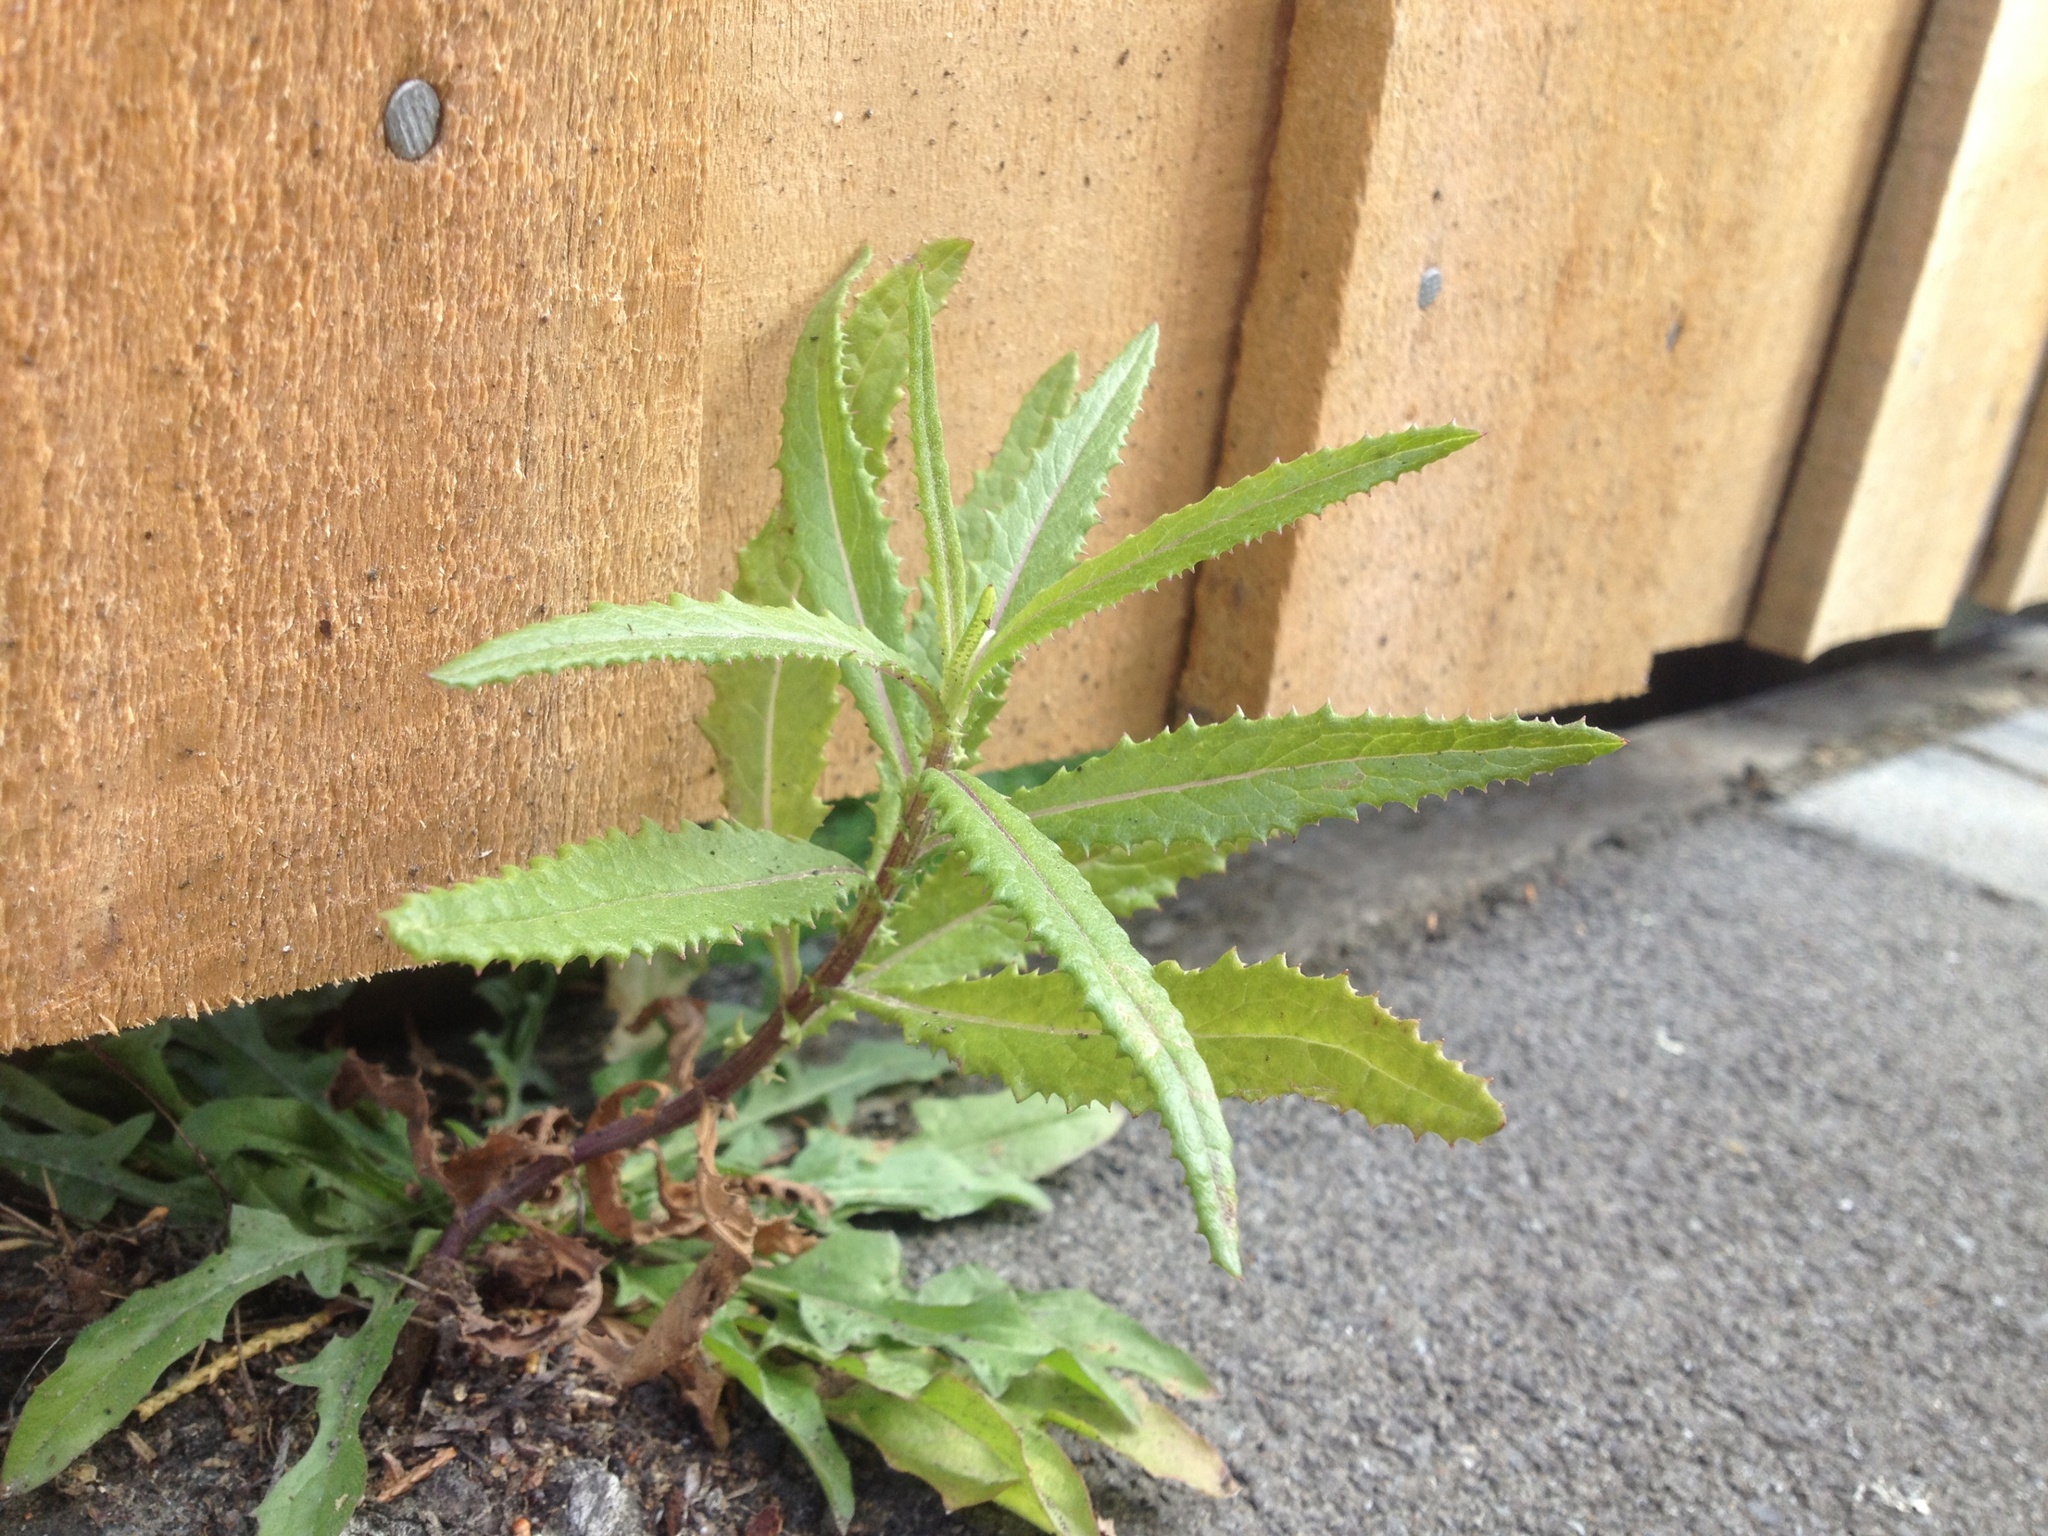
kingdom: Plantae
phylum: Tracheophyta
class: Magnoliopsida
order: Asterales
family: Asteraceae
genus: Senecio
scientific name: Senecio minimus
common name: Toothed fireweed
